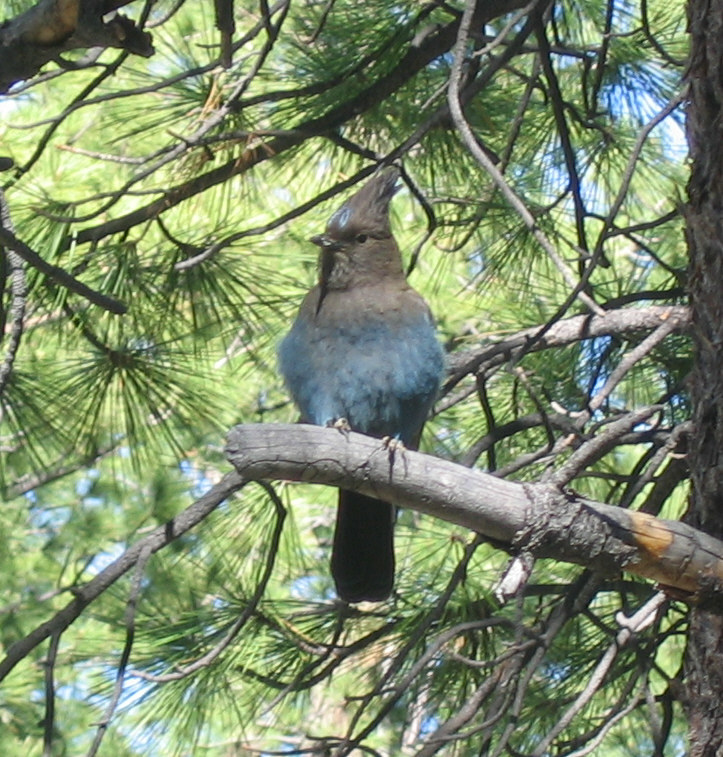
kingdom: Animalia
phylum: Chordata
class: Aves
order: Passeriformes
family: Corvidae
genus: Cyanocitta
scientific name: Cyanocitta stelleri
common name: Steller's jay
